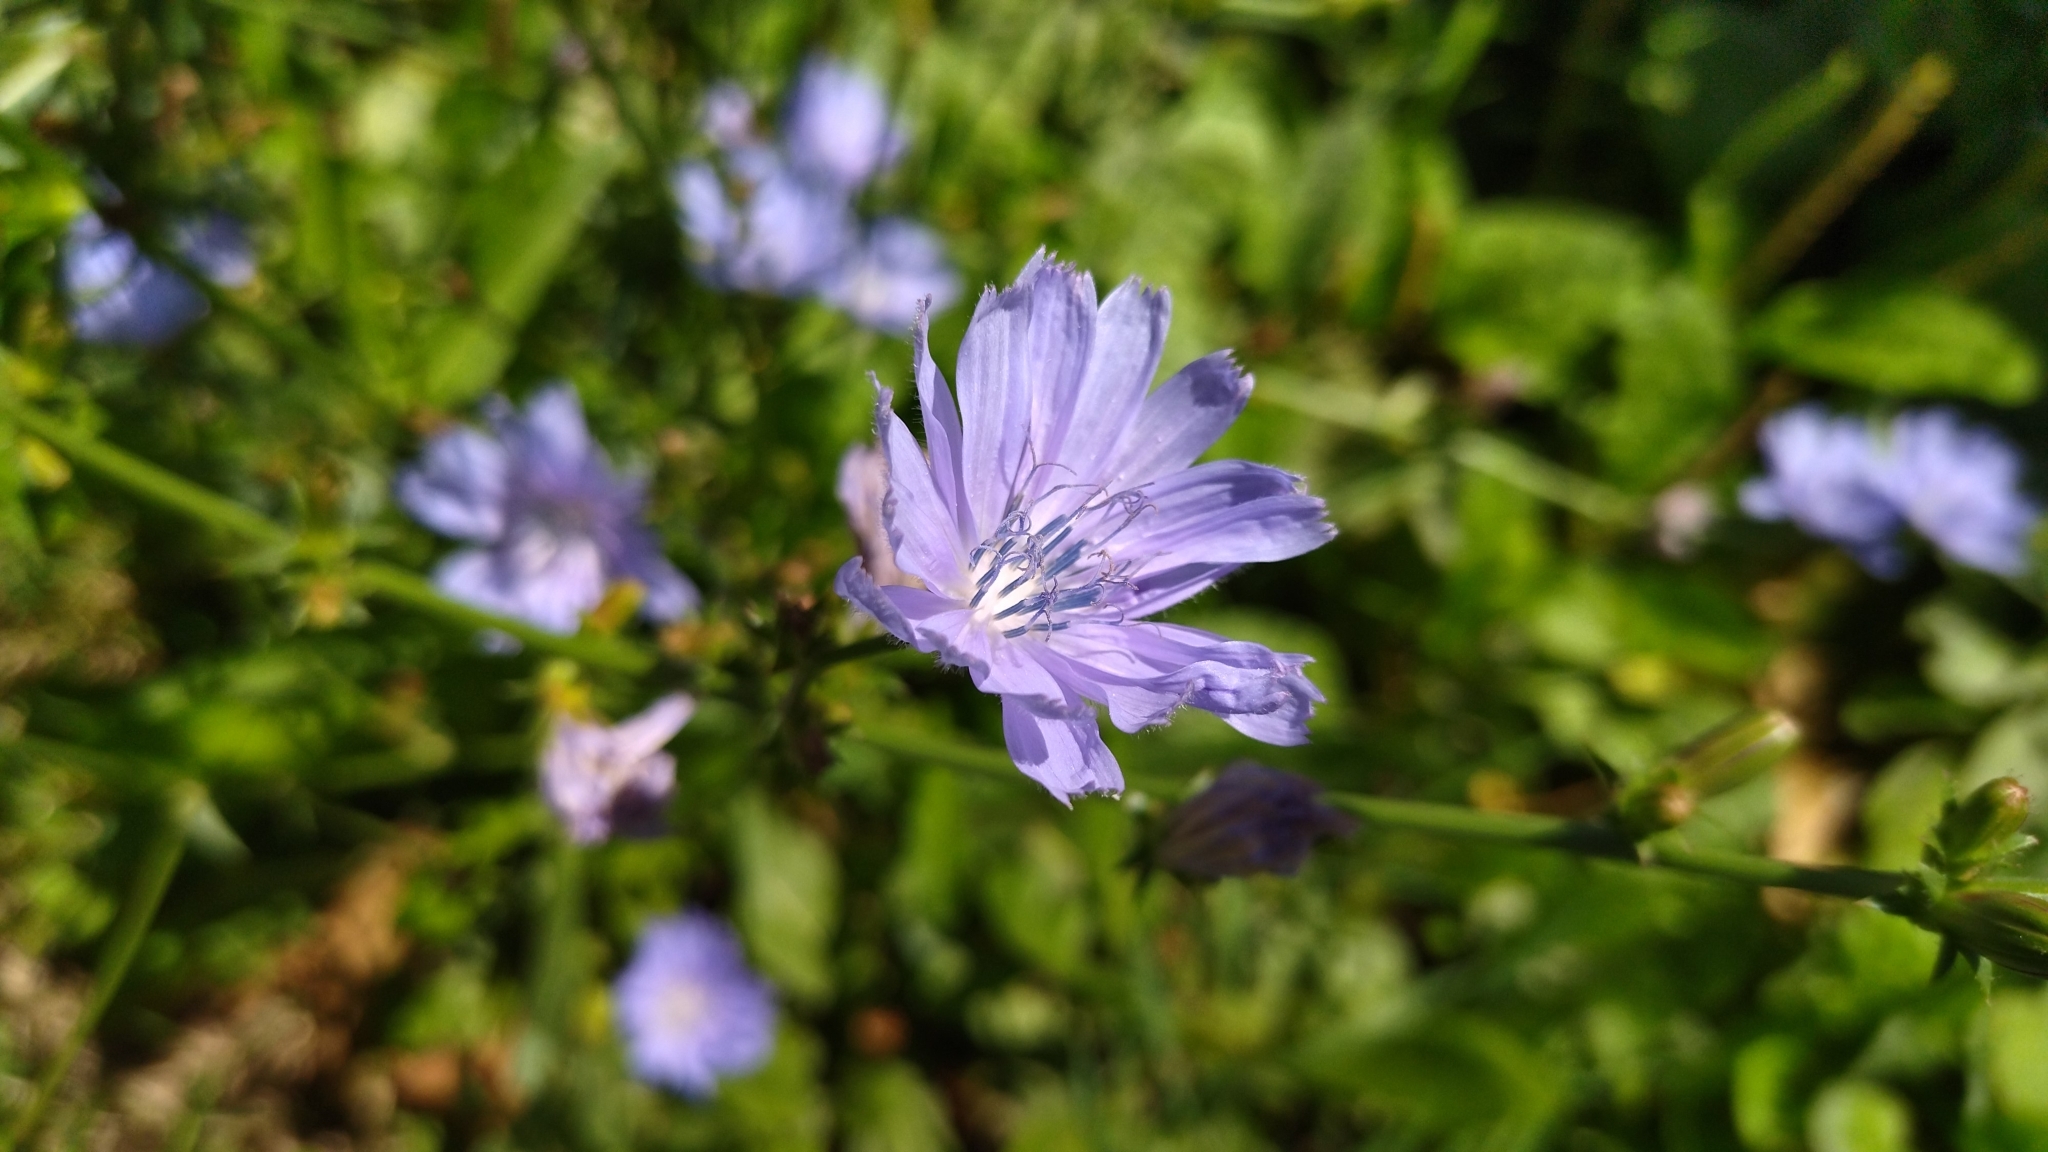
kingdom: Plantae
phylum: Tracheophyta
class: Magnoliopsida
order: Asterales
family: Asteraceae
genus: Cichorium
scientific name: Cichorium intybus
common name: Chicory
